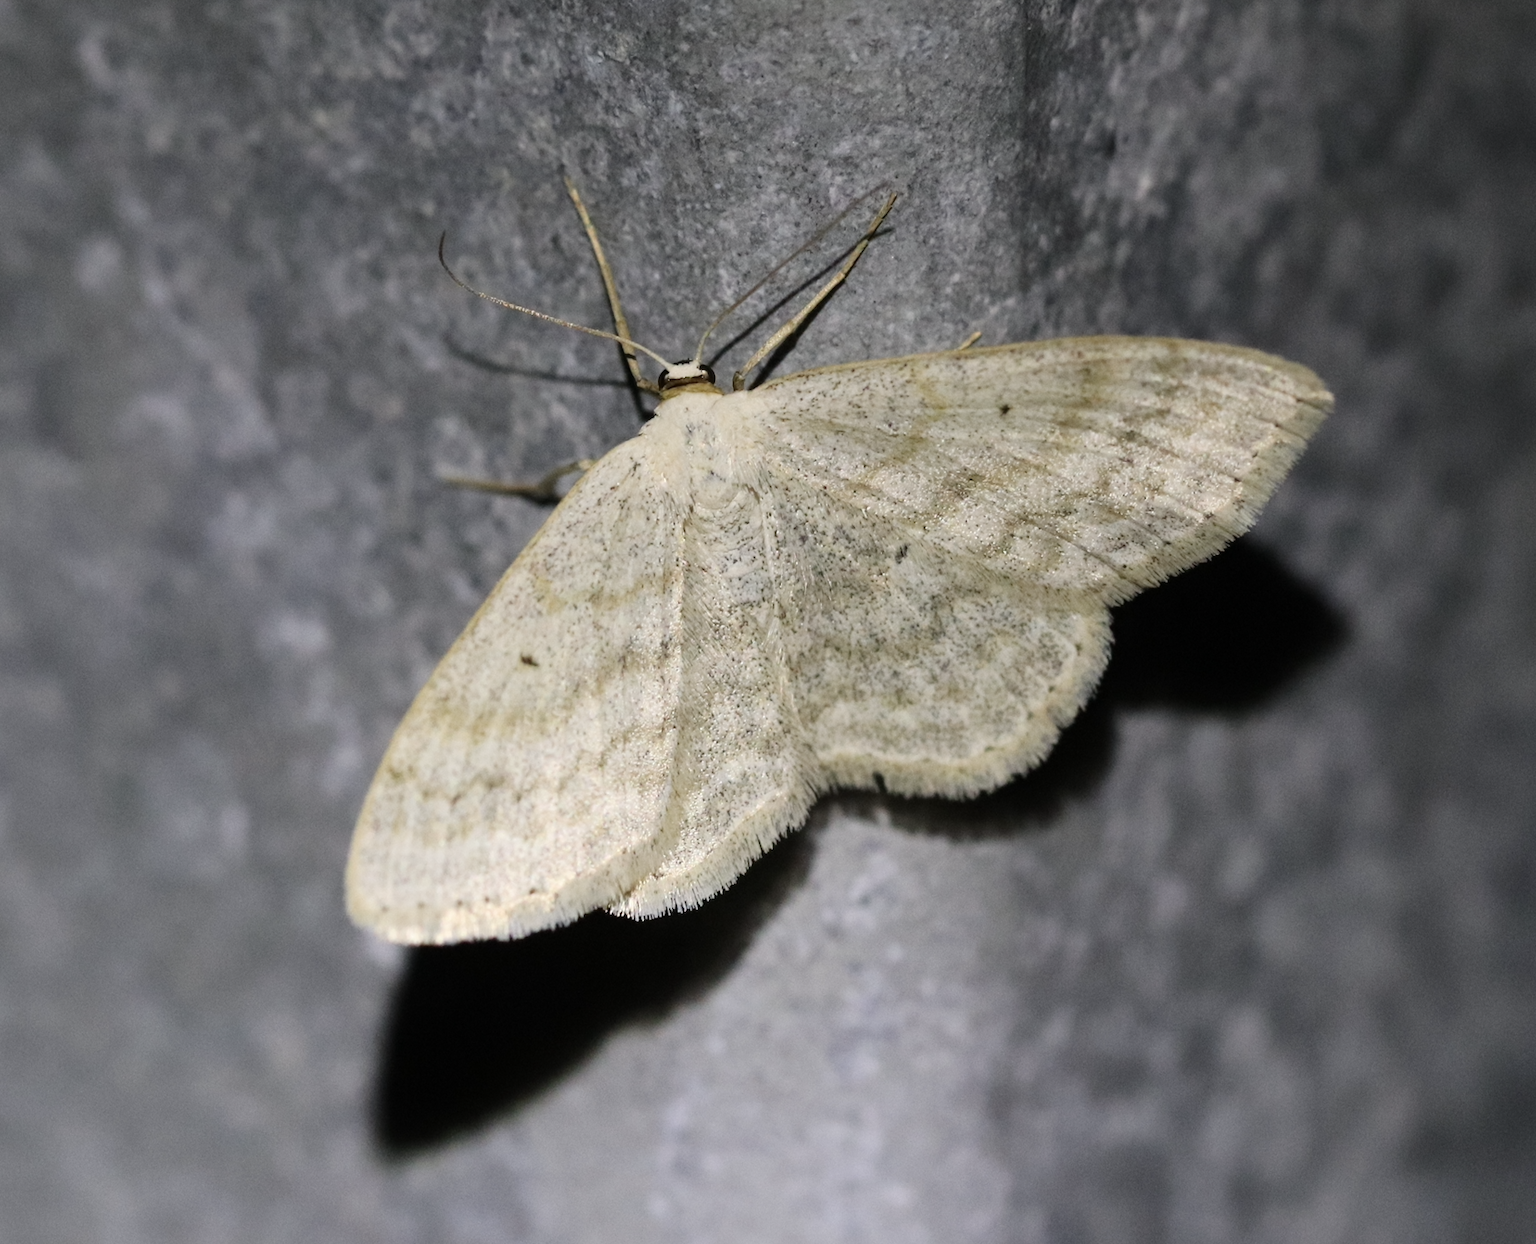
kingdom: Animalia
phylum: Arthropoda
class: Insecta
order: Lepidoptera
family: Geometridae
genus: Scopula
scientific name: Scopula incanata
